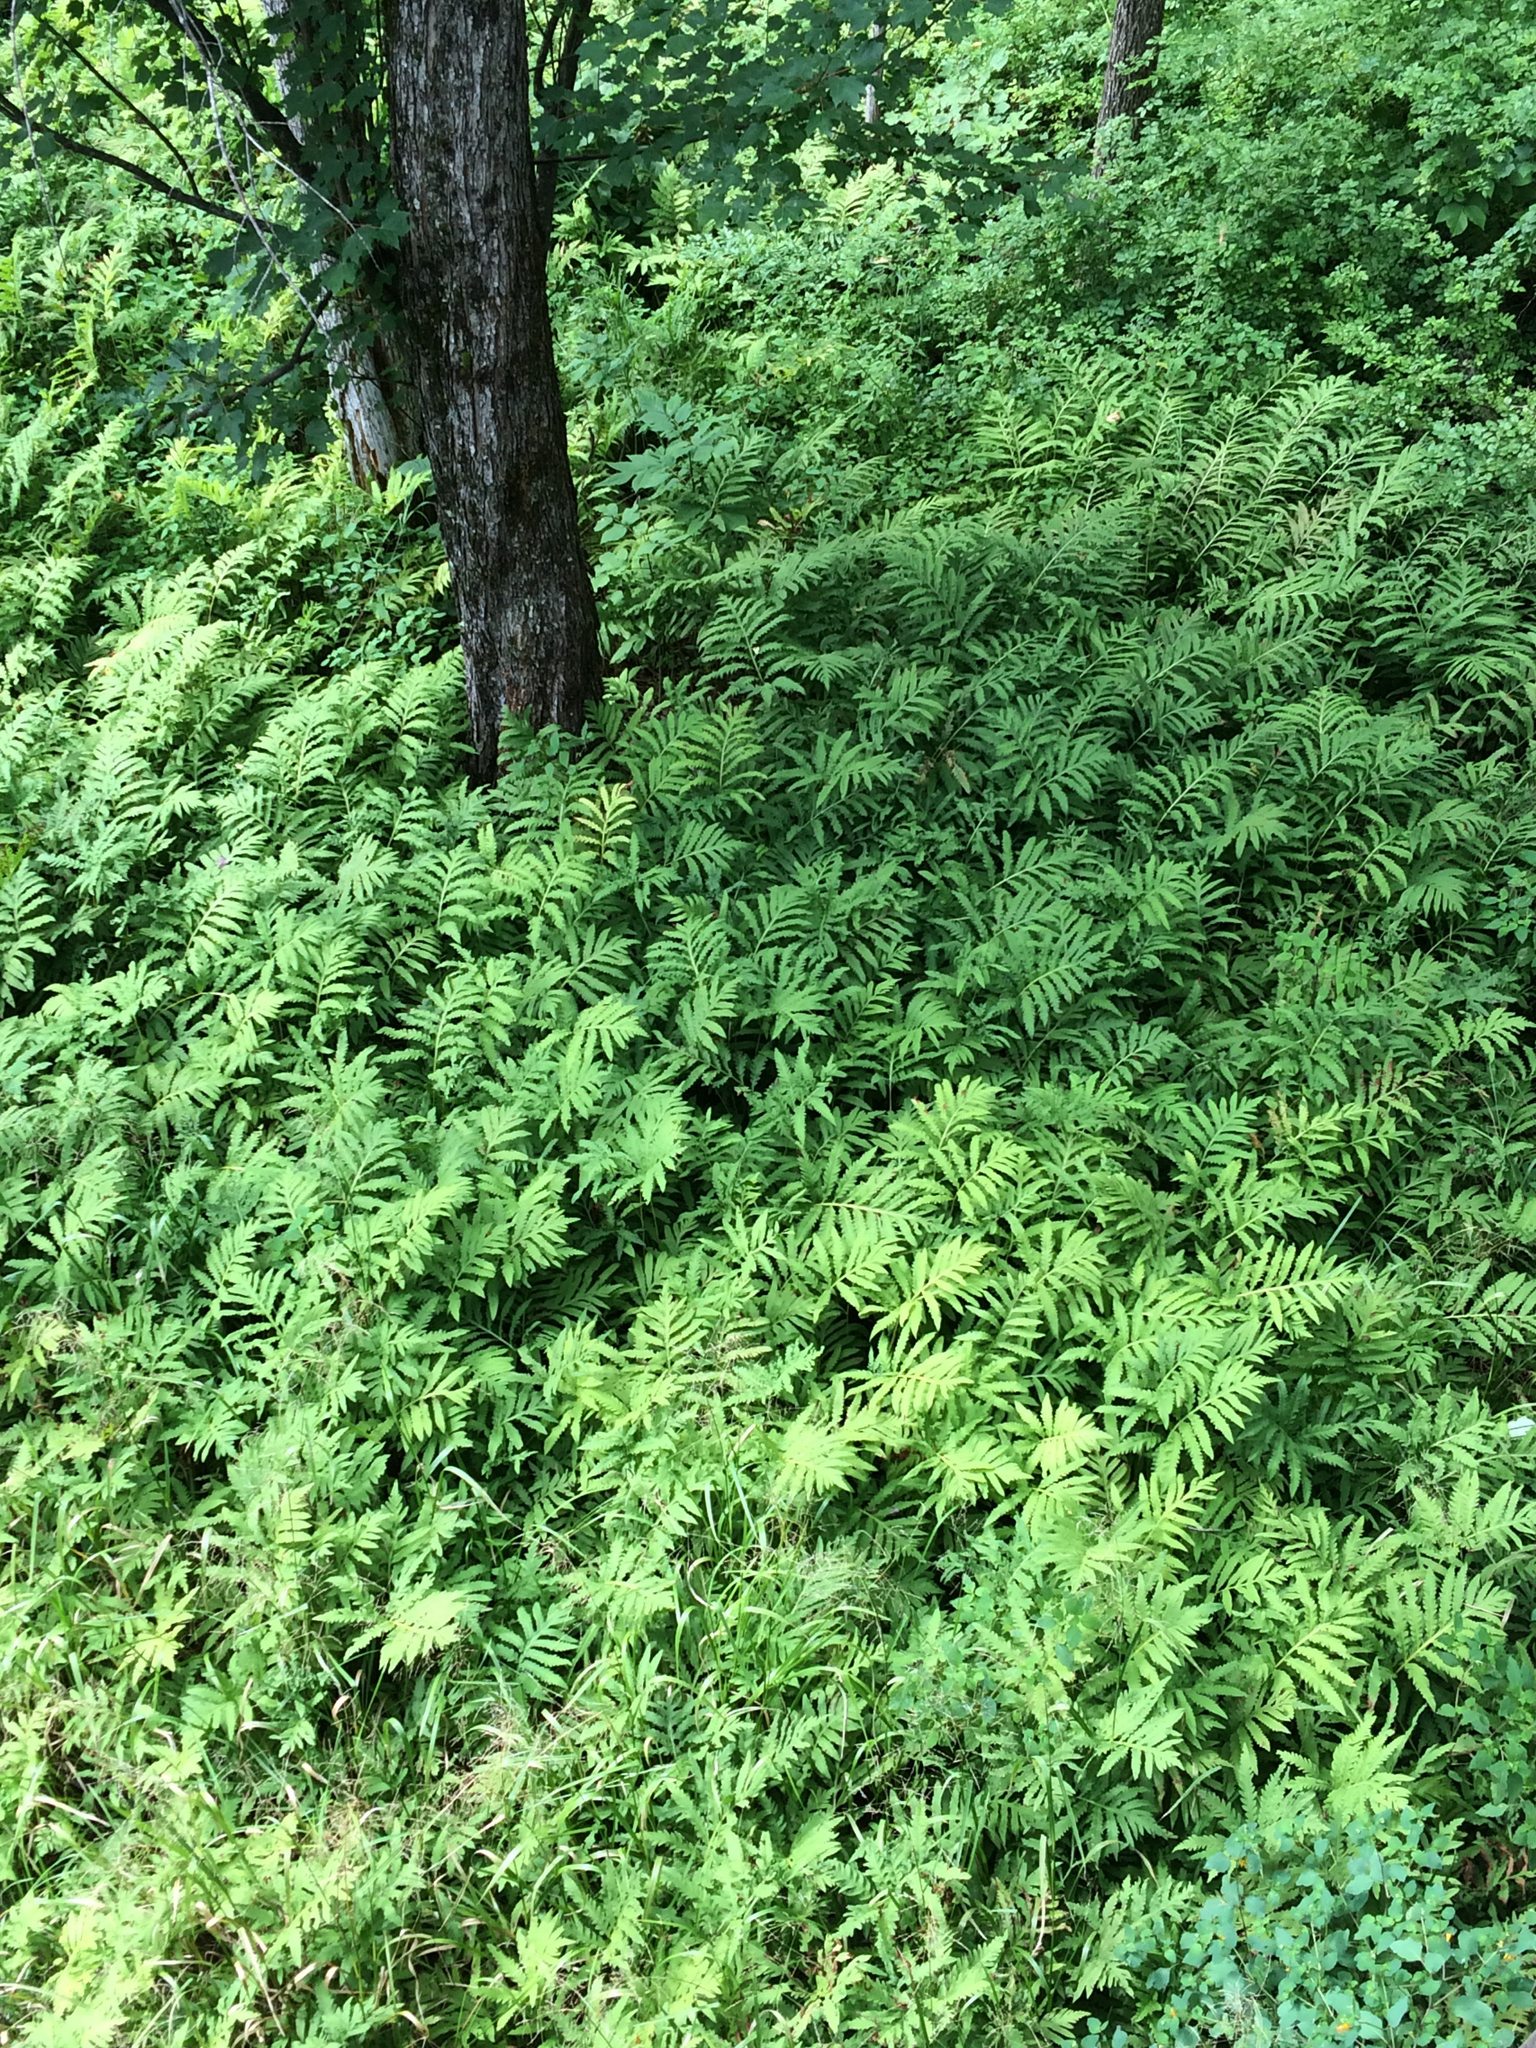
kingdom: Plantae
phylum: Tracheophyta
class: Polypodiopsida
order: Polypodiales
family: Onocleaceae
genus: Onoclea
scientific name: Onoclea sensibilis
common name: Sensitive fern
